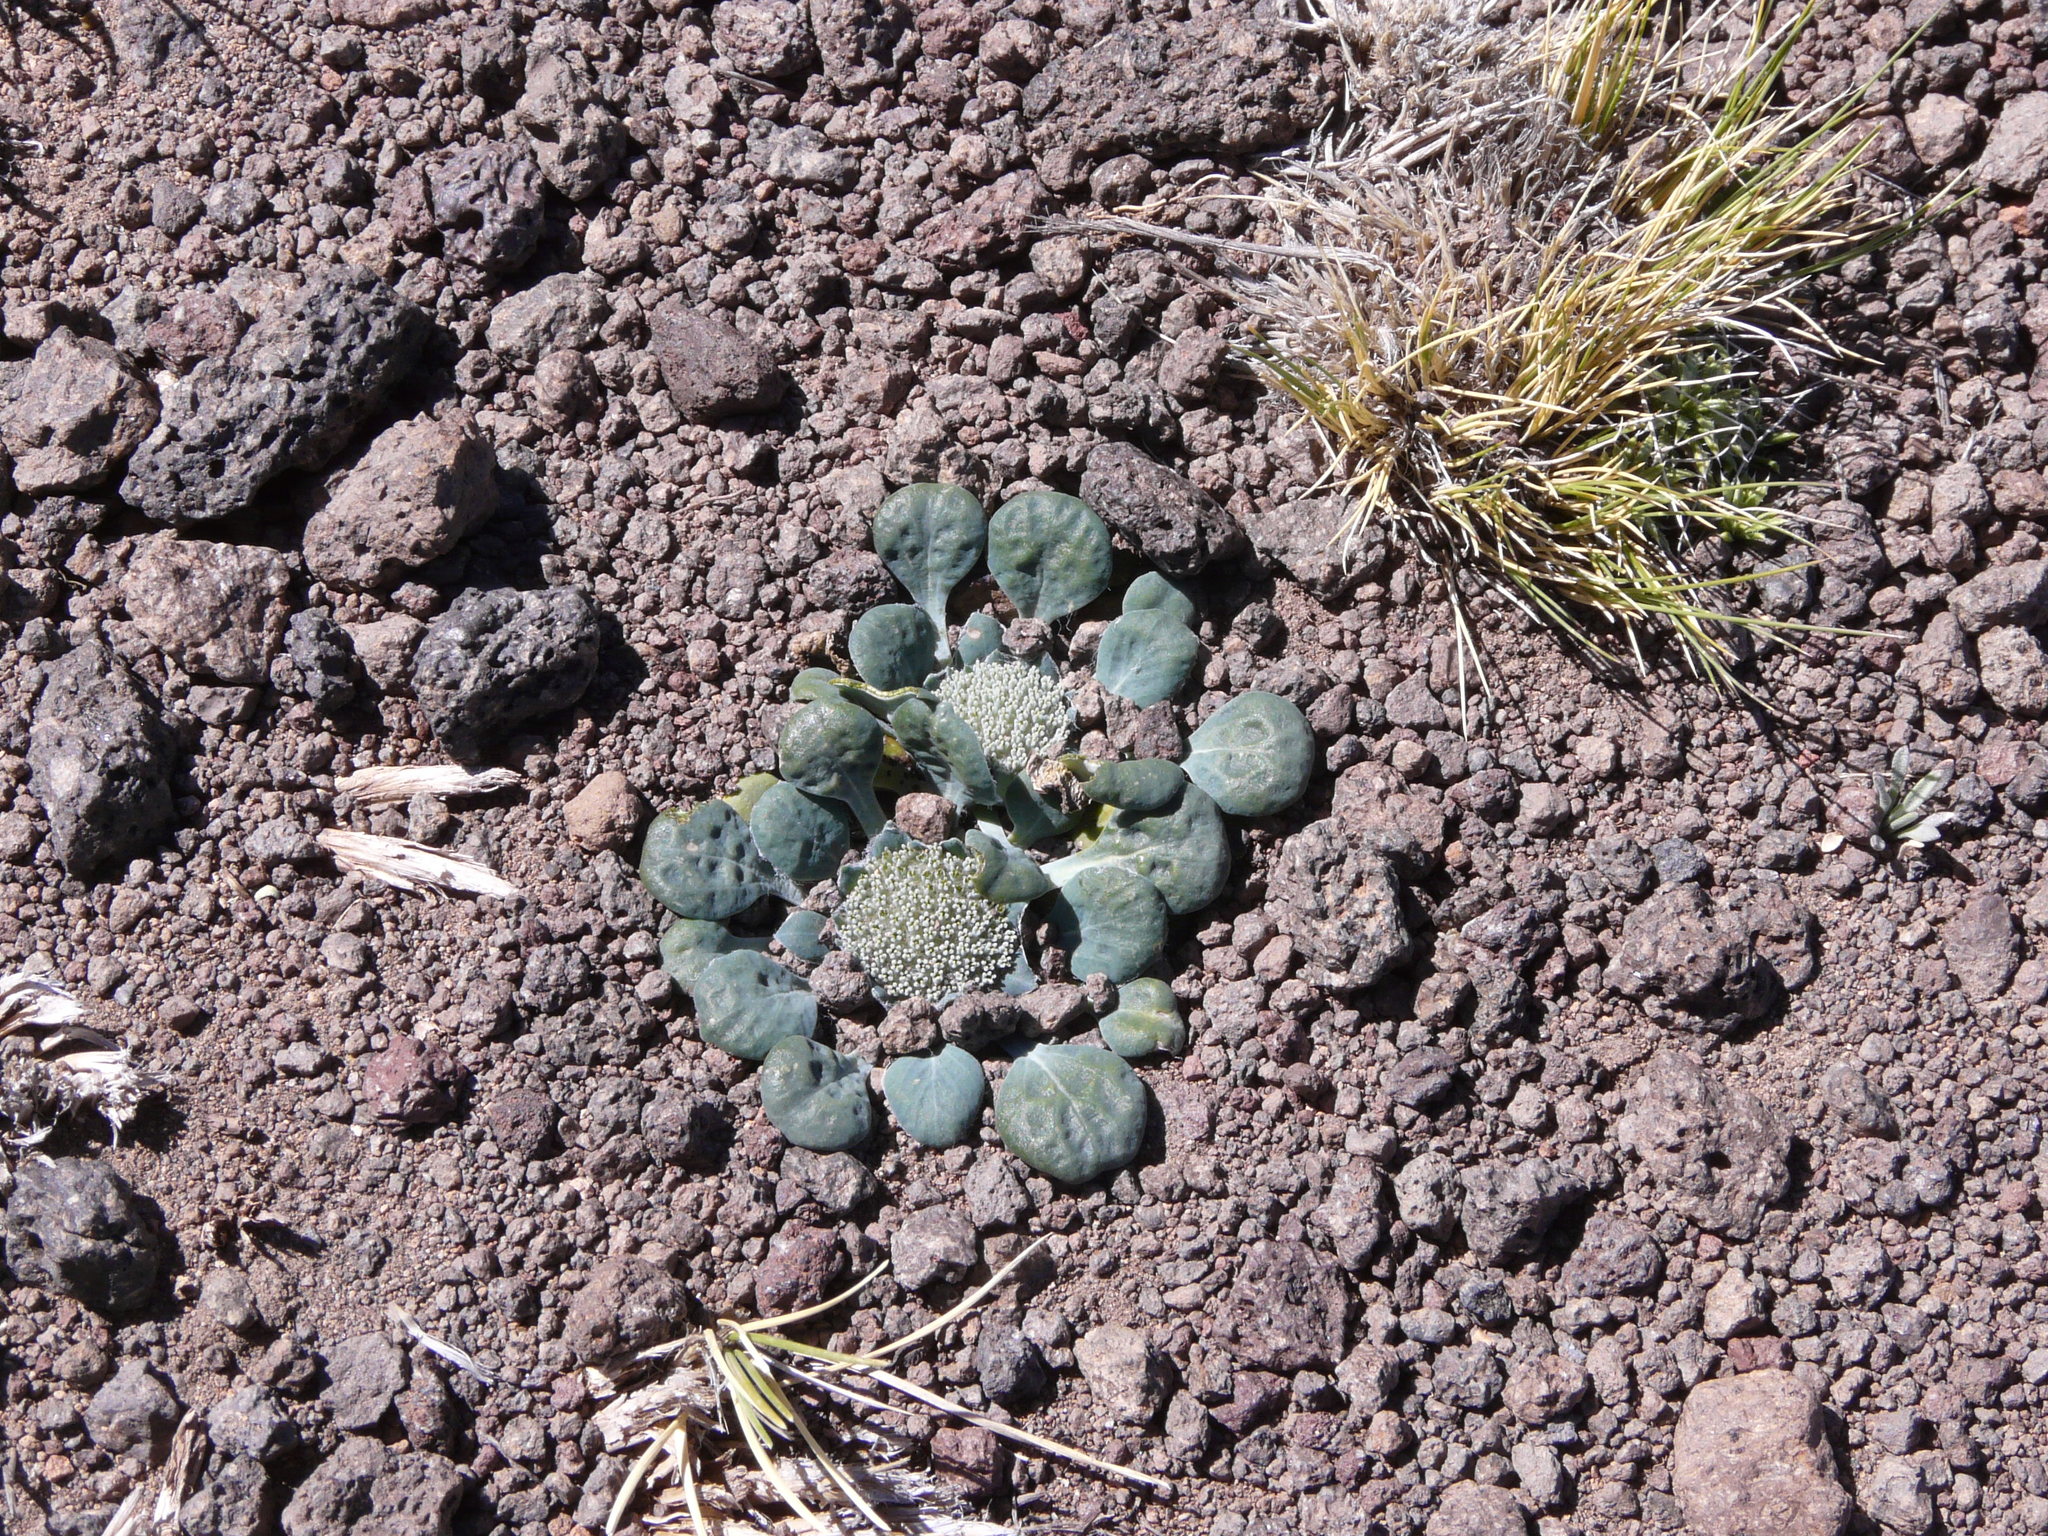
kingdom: Plantae
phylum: Tracheophyta
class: Magnoliopsida
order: Asterales
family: Calyceraceae
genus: Leucocera
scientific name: Leucocera pterocalyx
